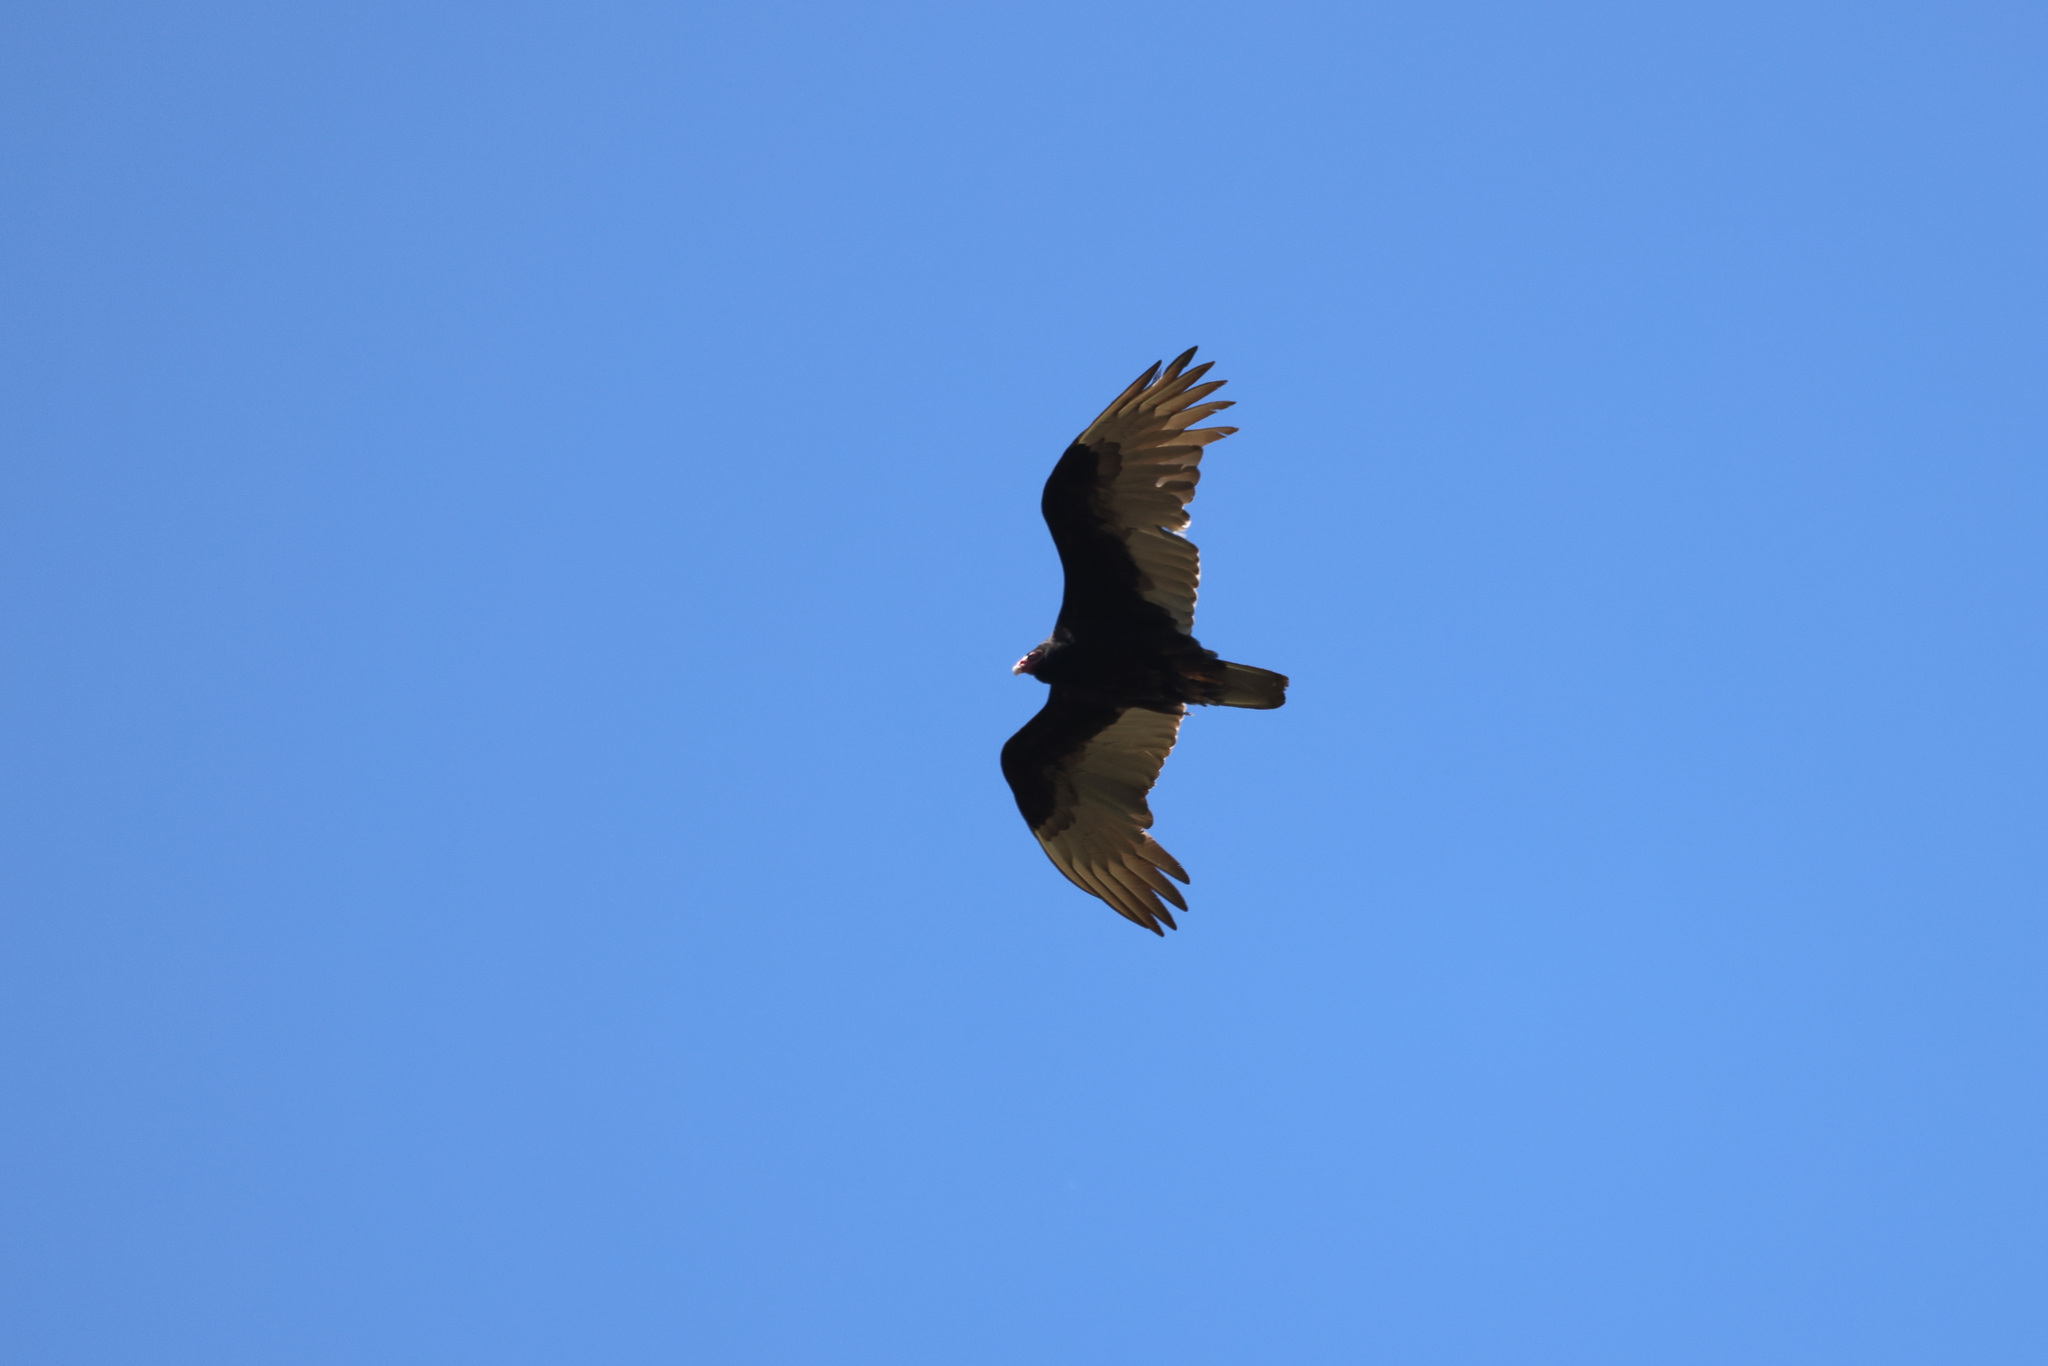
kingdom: Animalia
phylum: Chordata
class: Aves
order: Accipitriformes
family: Cathartidae
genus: Cathartes
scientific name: Cathartes aura
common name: Turkey vulture
